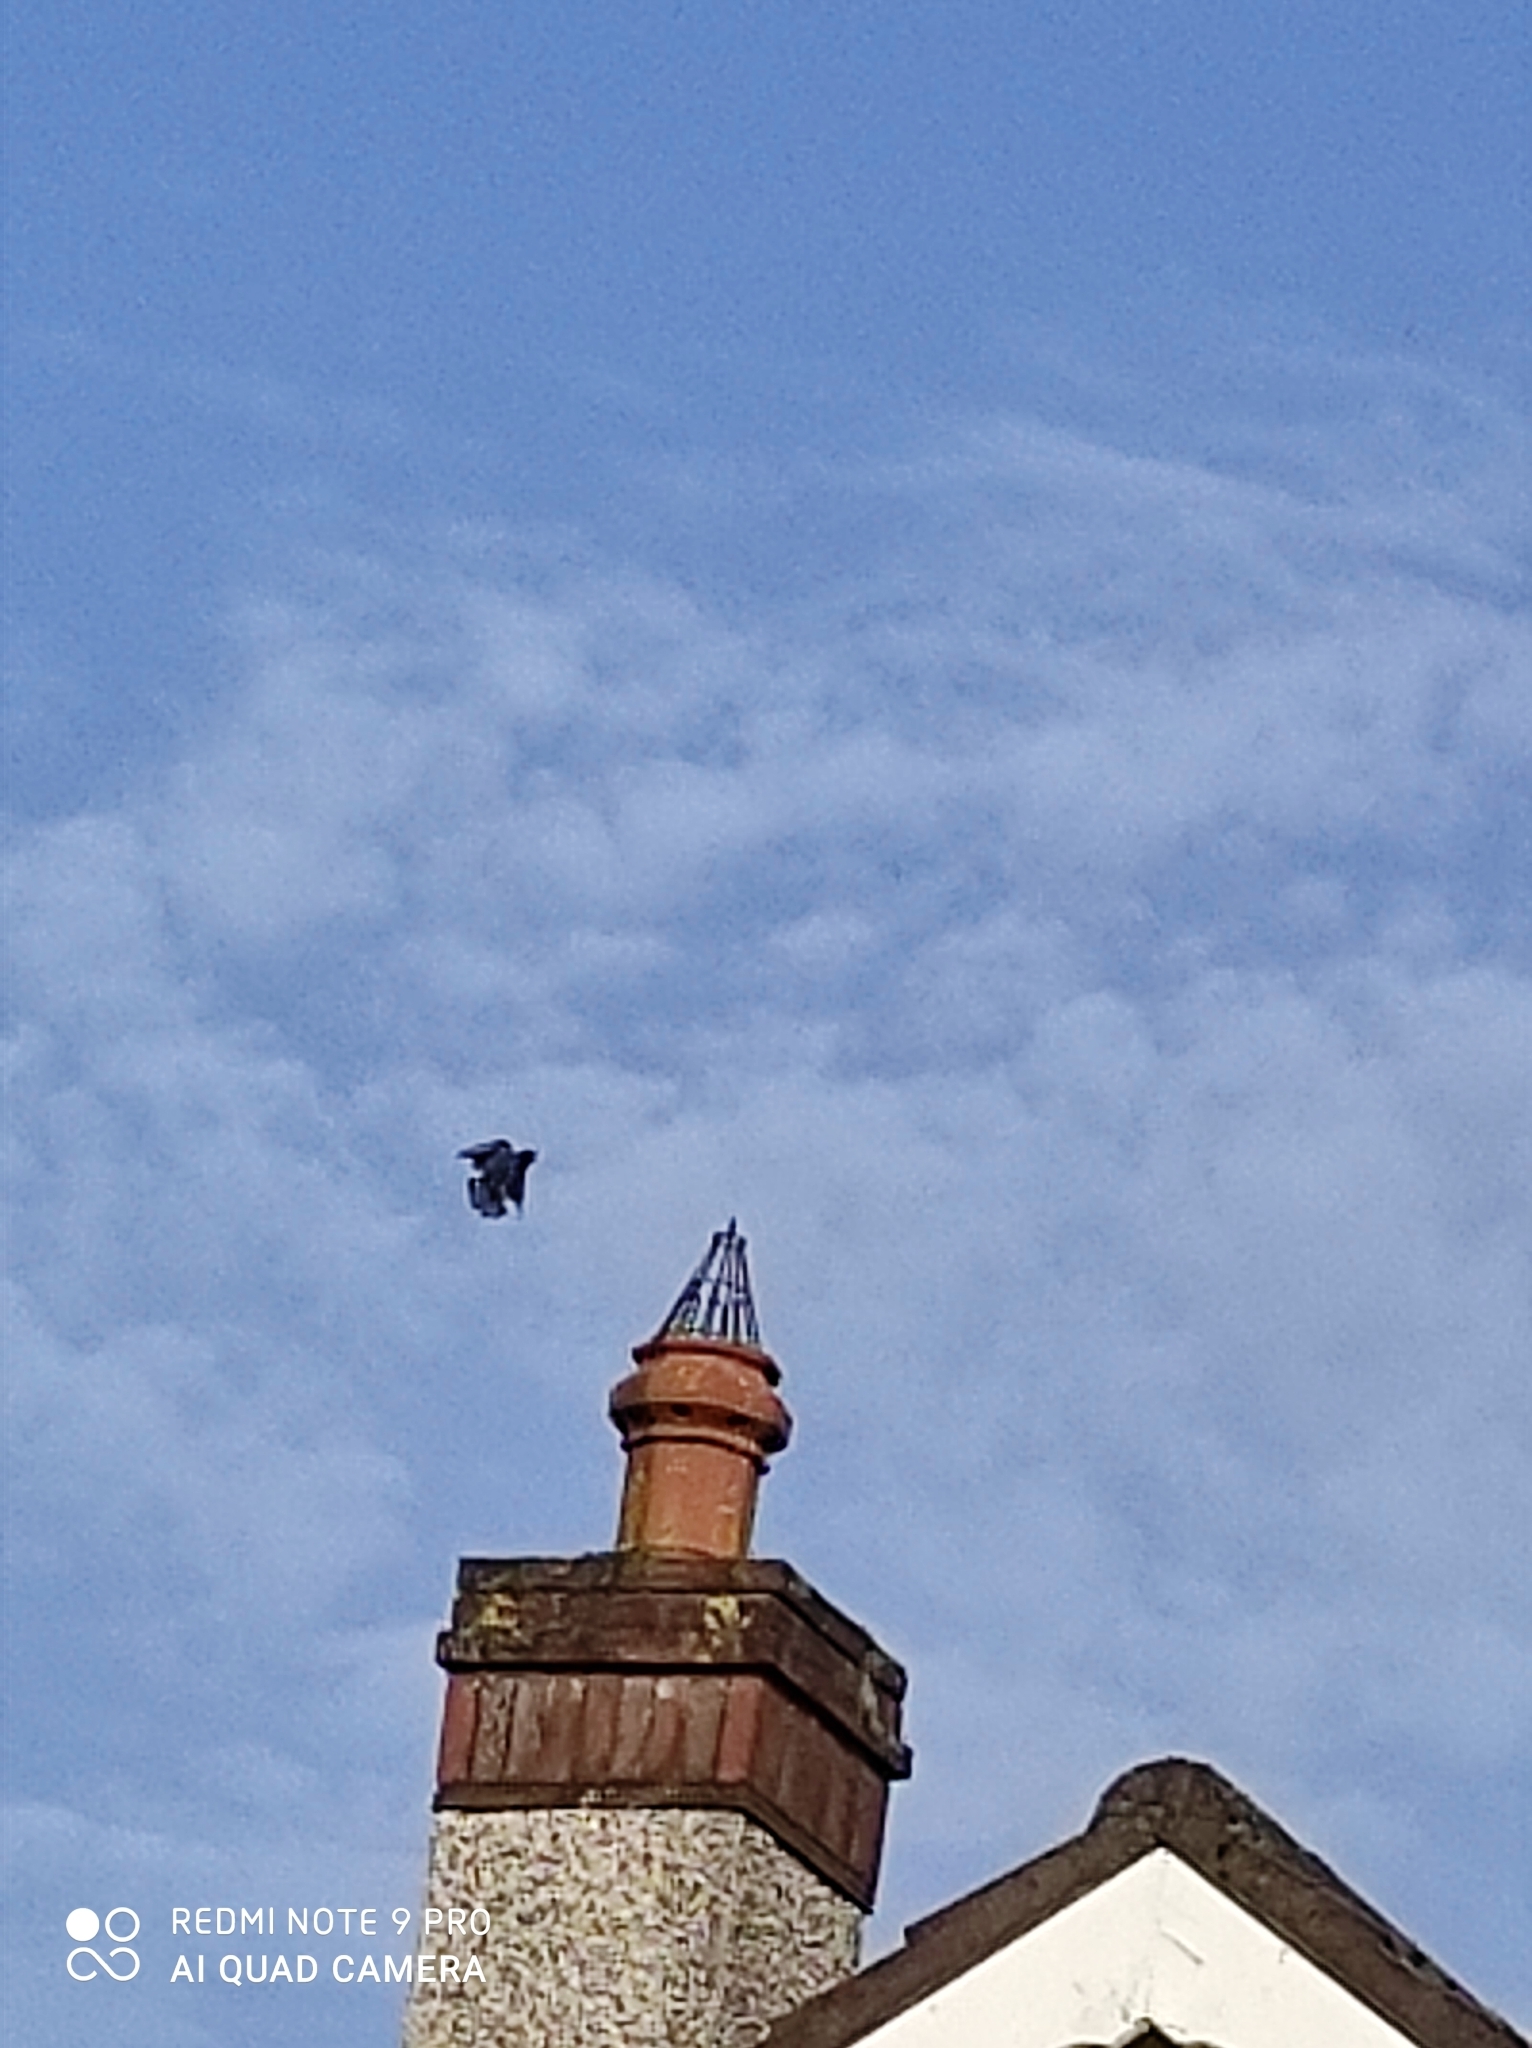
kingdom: Animalia
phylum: Chordata
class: Aves
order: Passeriformes
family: Sturnidae
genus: Sturnus
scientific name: Sturnus vulgaris
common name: Common starling
